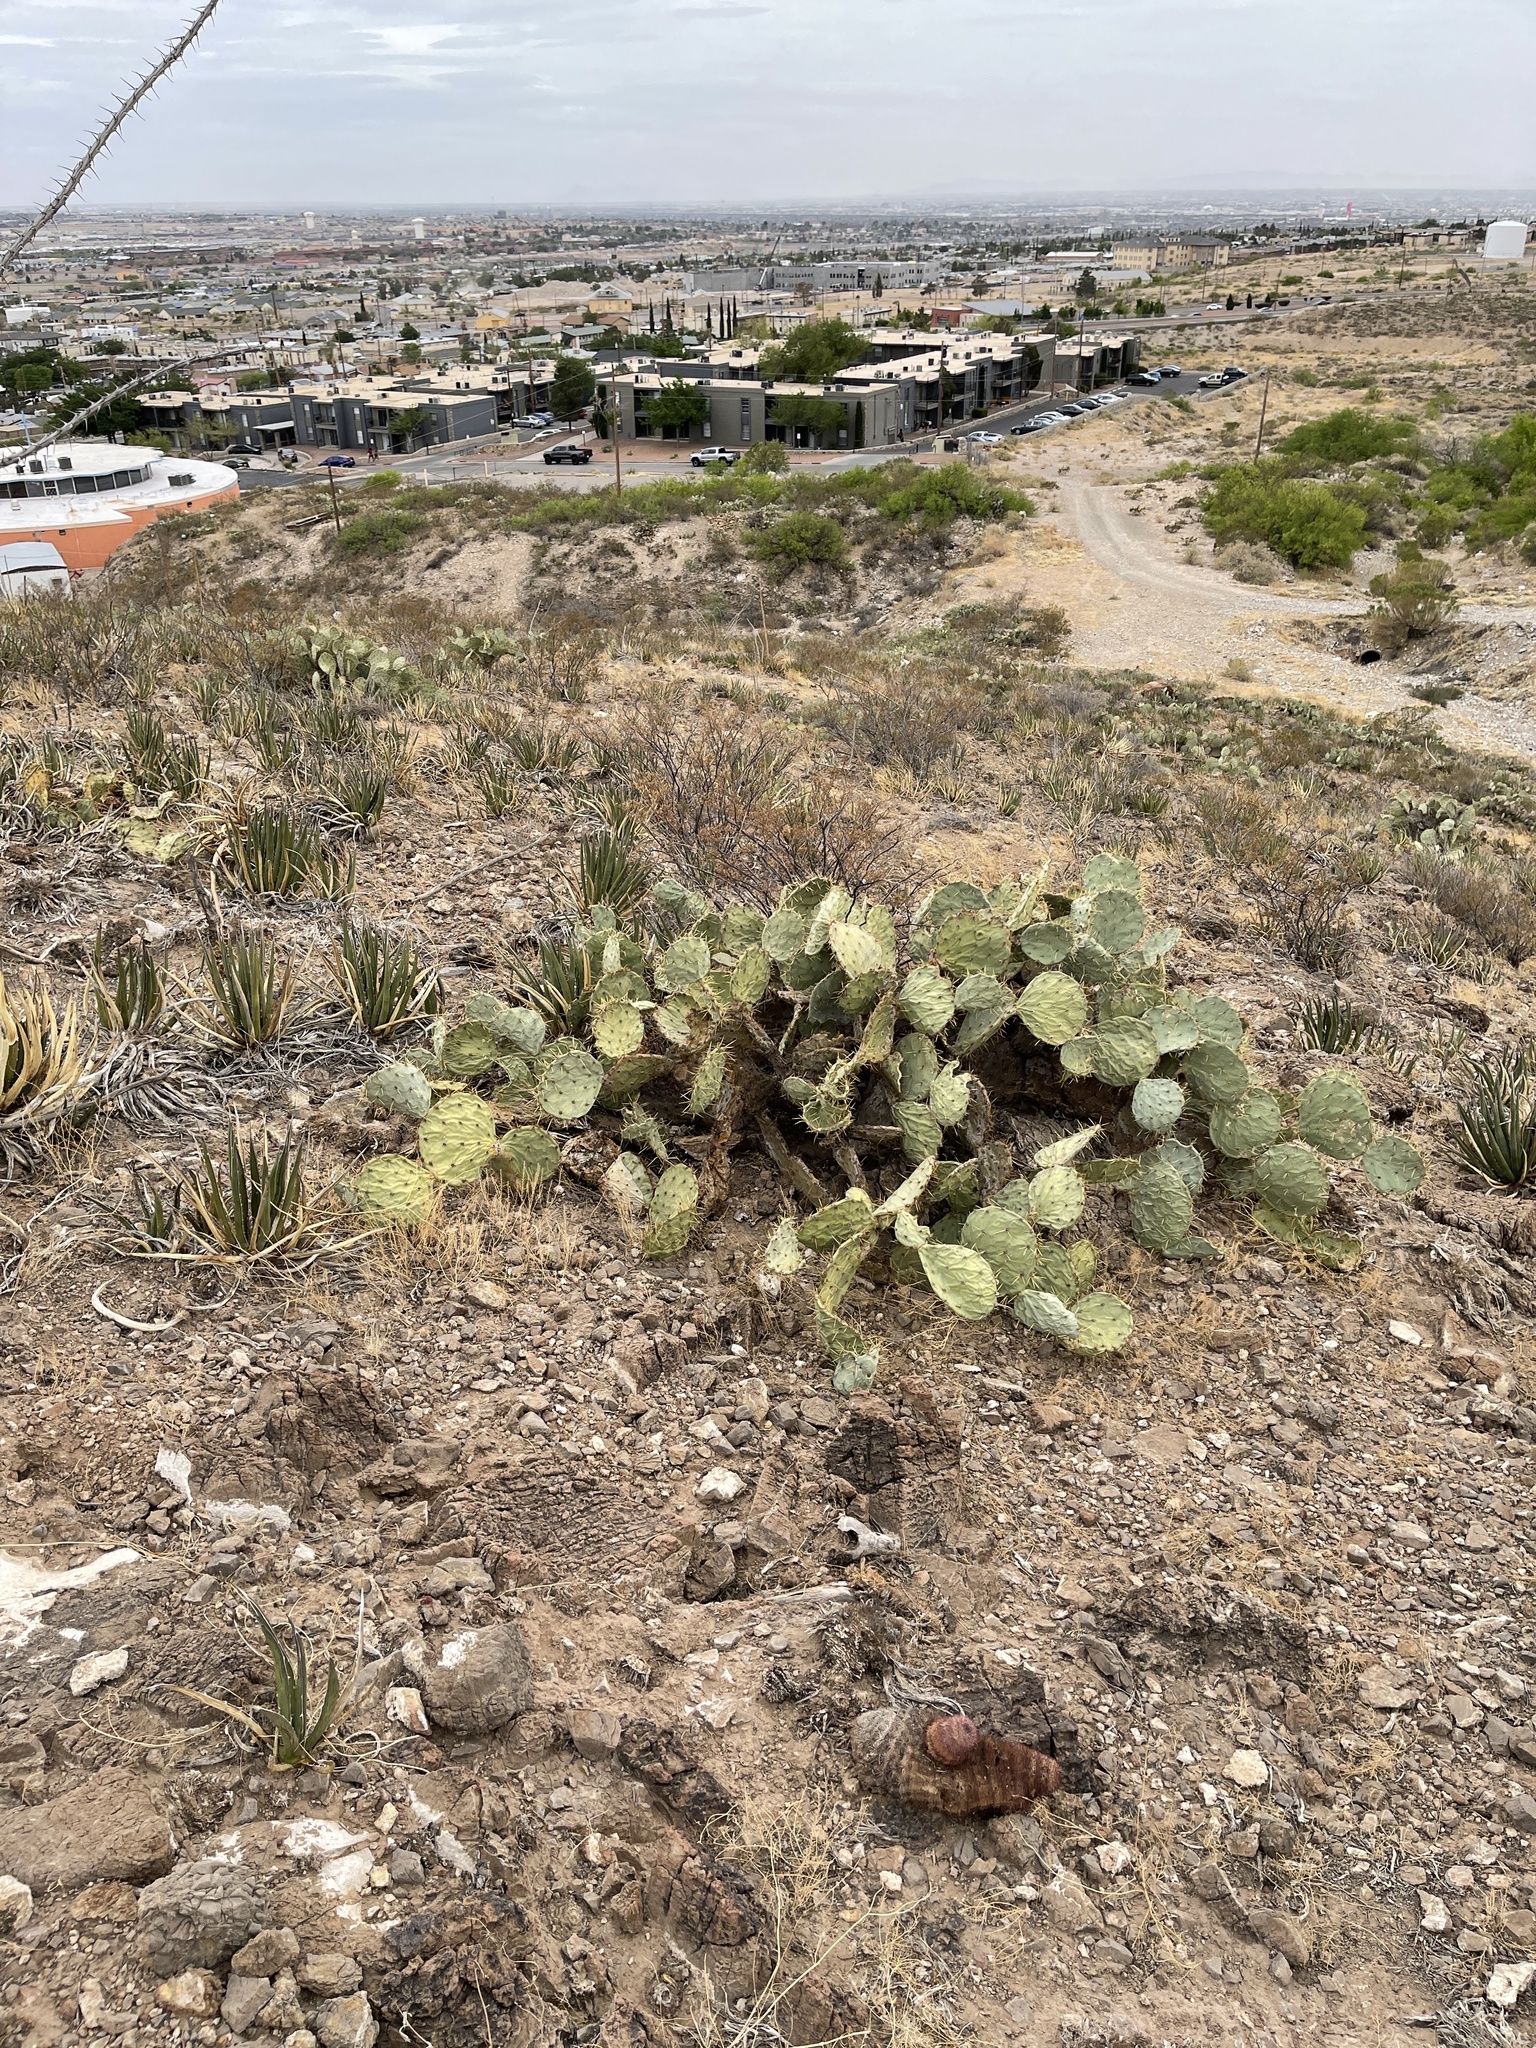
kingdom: Plantae
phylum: Tracheophyta
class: Magnoliopsida
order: Caryophyllales
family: Cactaceae
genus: Opuntia
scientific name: Opuntia engelmannii
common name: Cactus-apple
